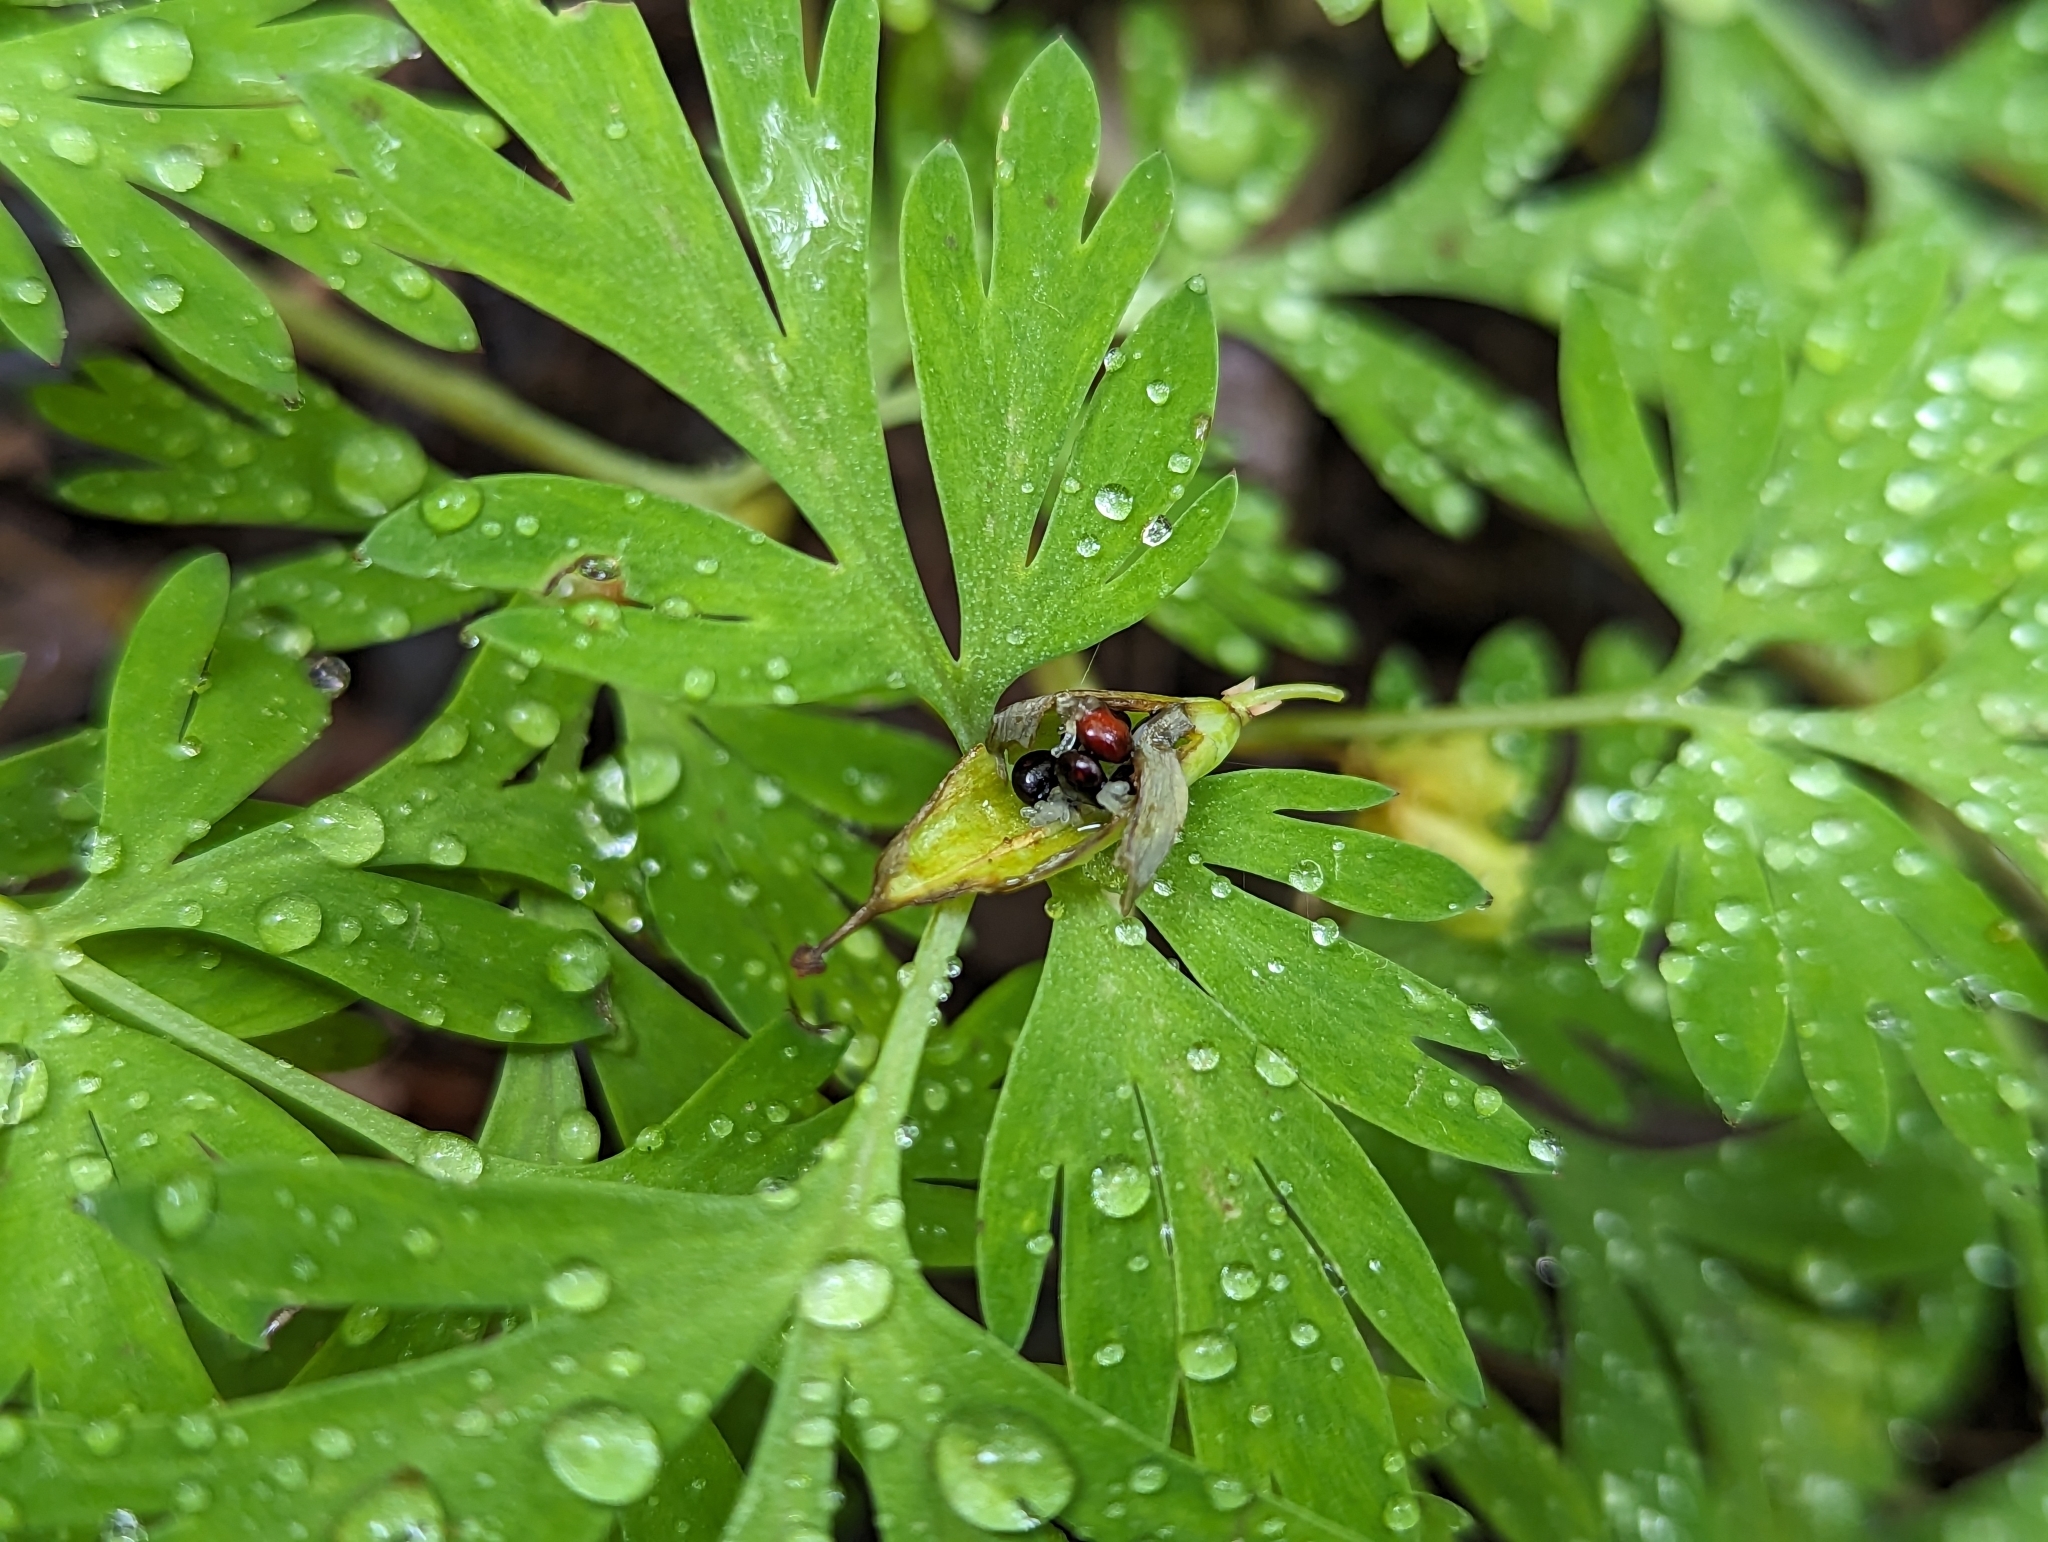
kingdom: Plantae
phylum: Tracheophyta
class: Magnoliopsida
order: Ranunculales
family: Papaveraceae
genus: Dicentra
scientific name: Dicentra cucullaria
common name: Dutchman's breeches
